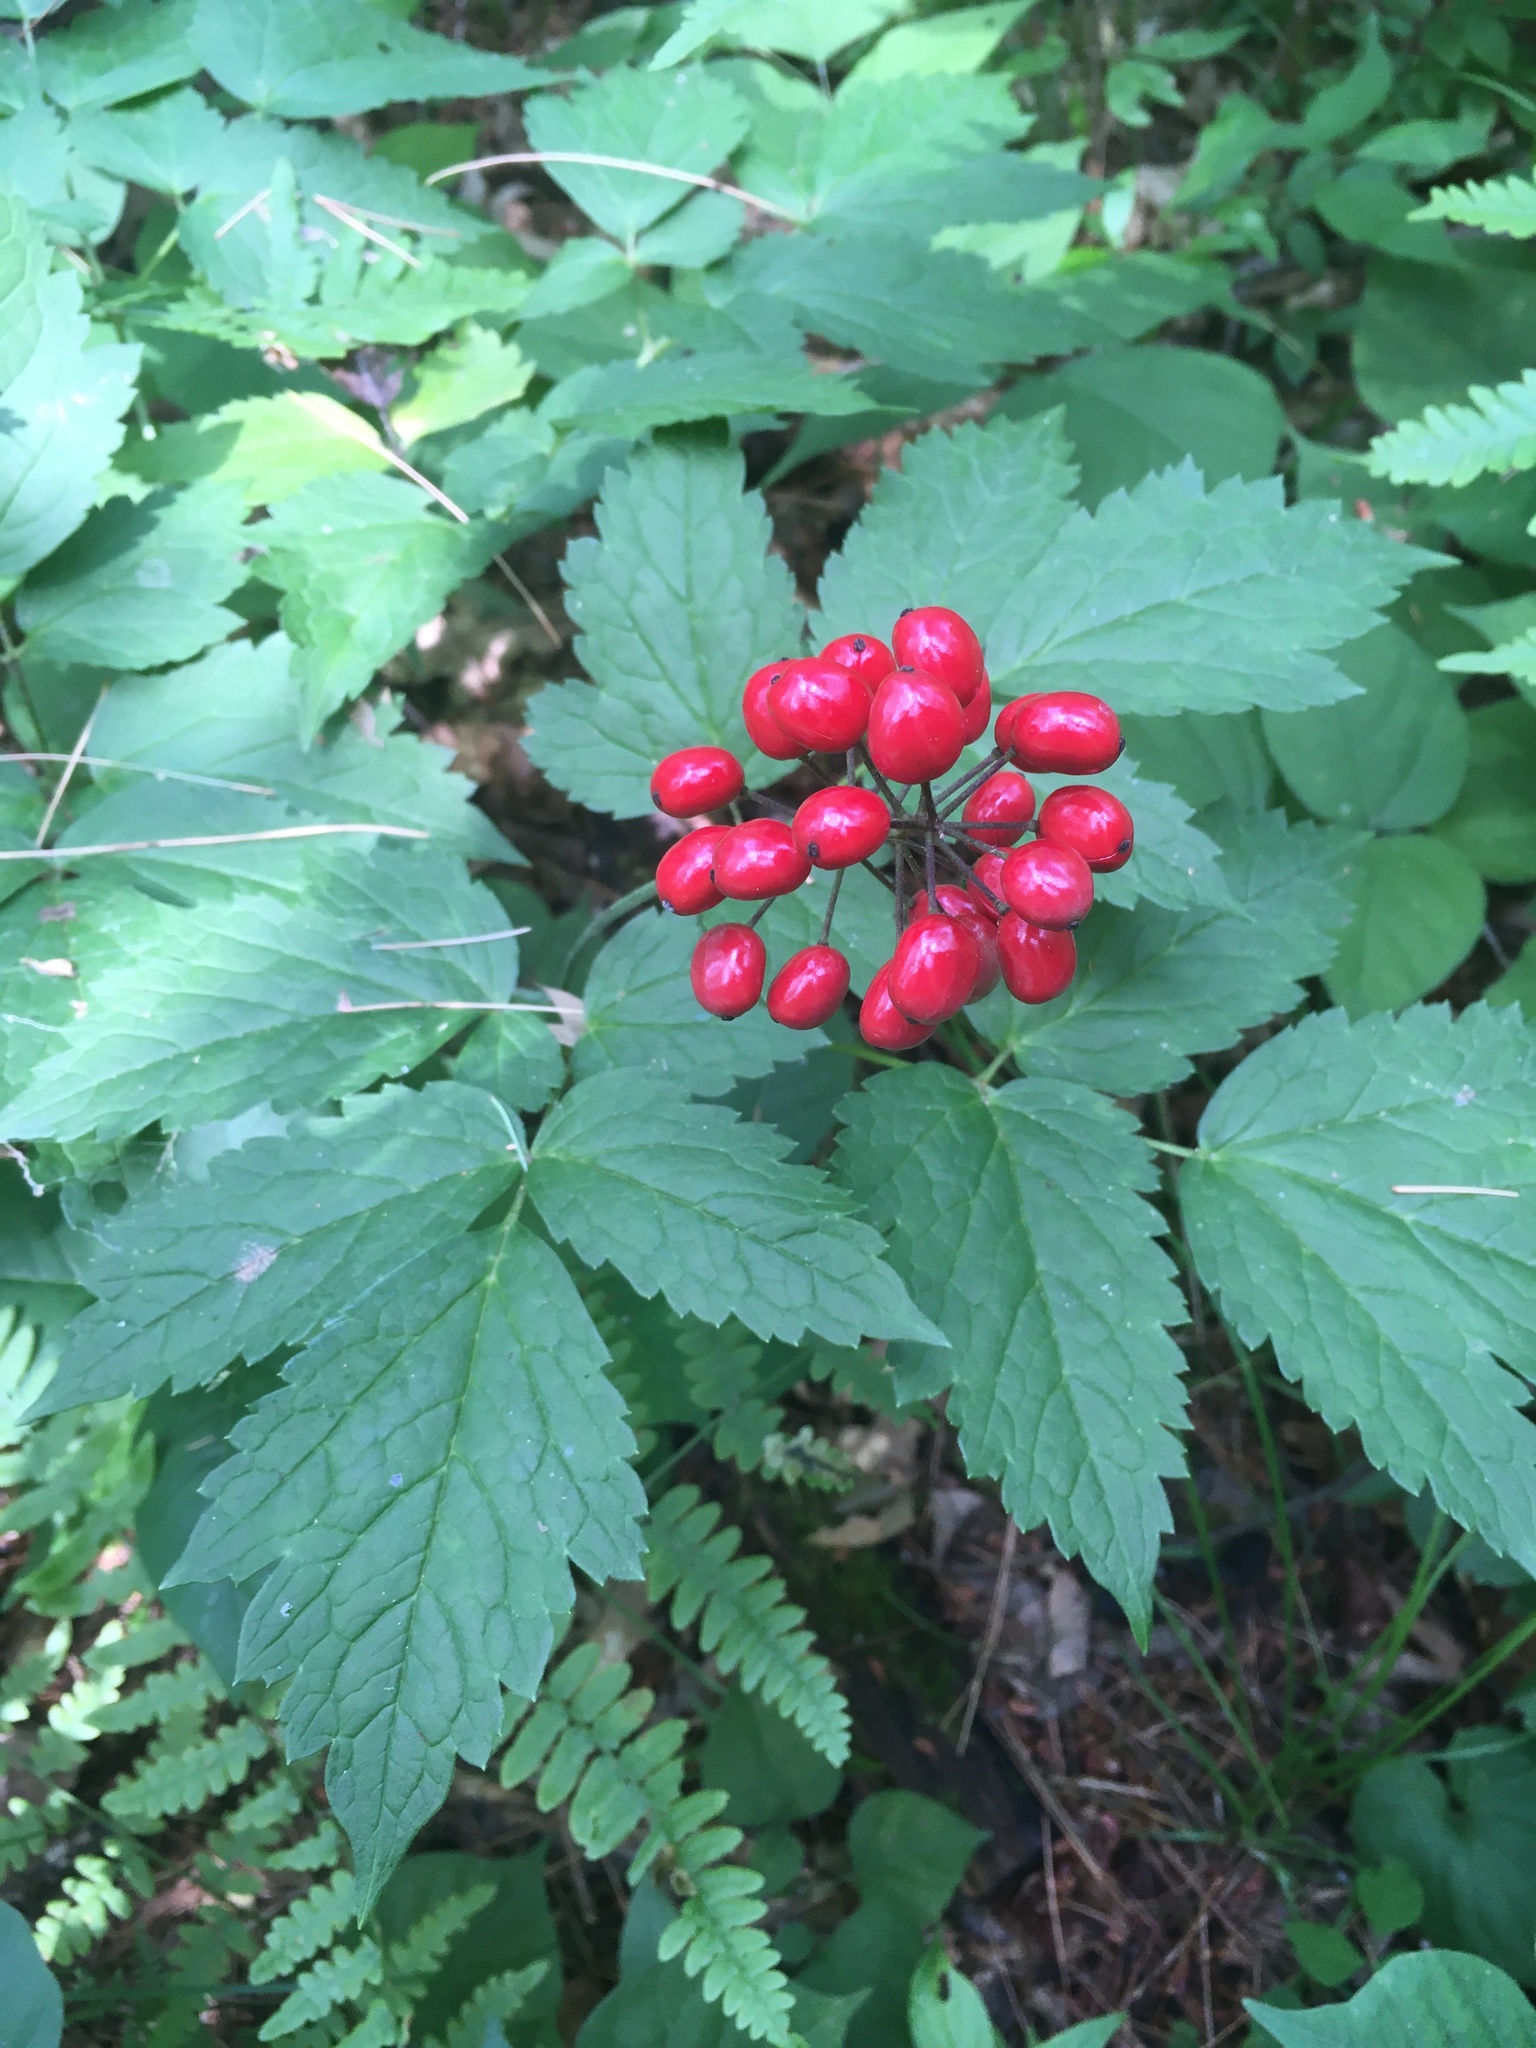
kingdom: Plantae
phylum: Tracheophyta
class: Magnoliopsida
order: Ranunculales
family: Ranunculaceae
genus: Actaea
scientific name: Actaea rubra
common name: Red baneberry
